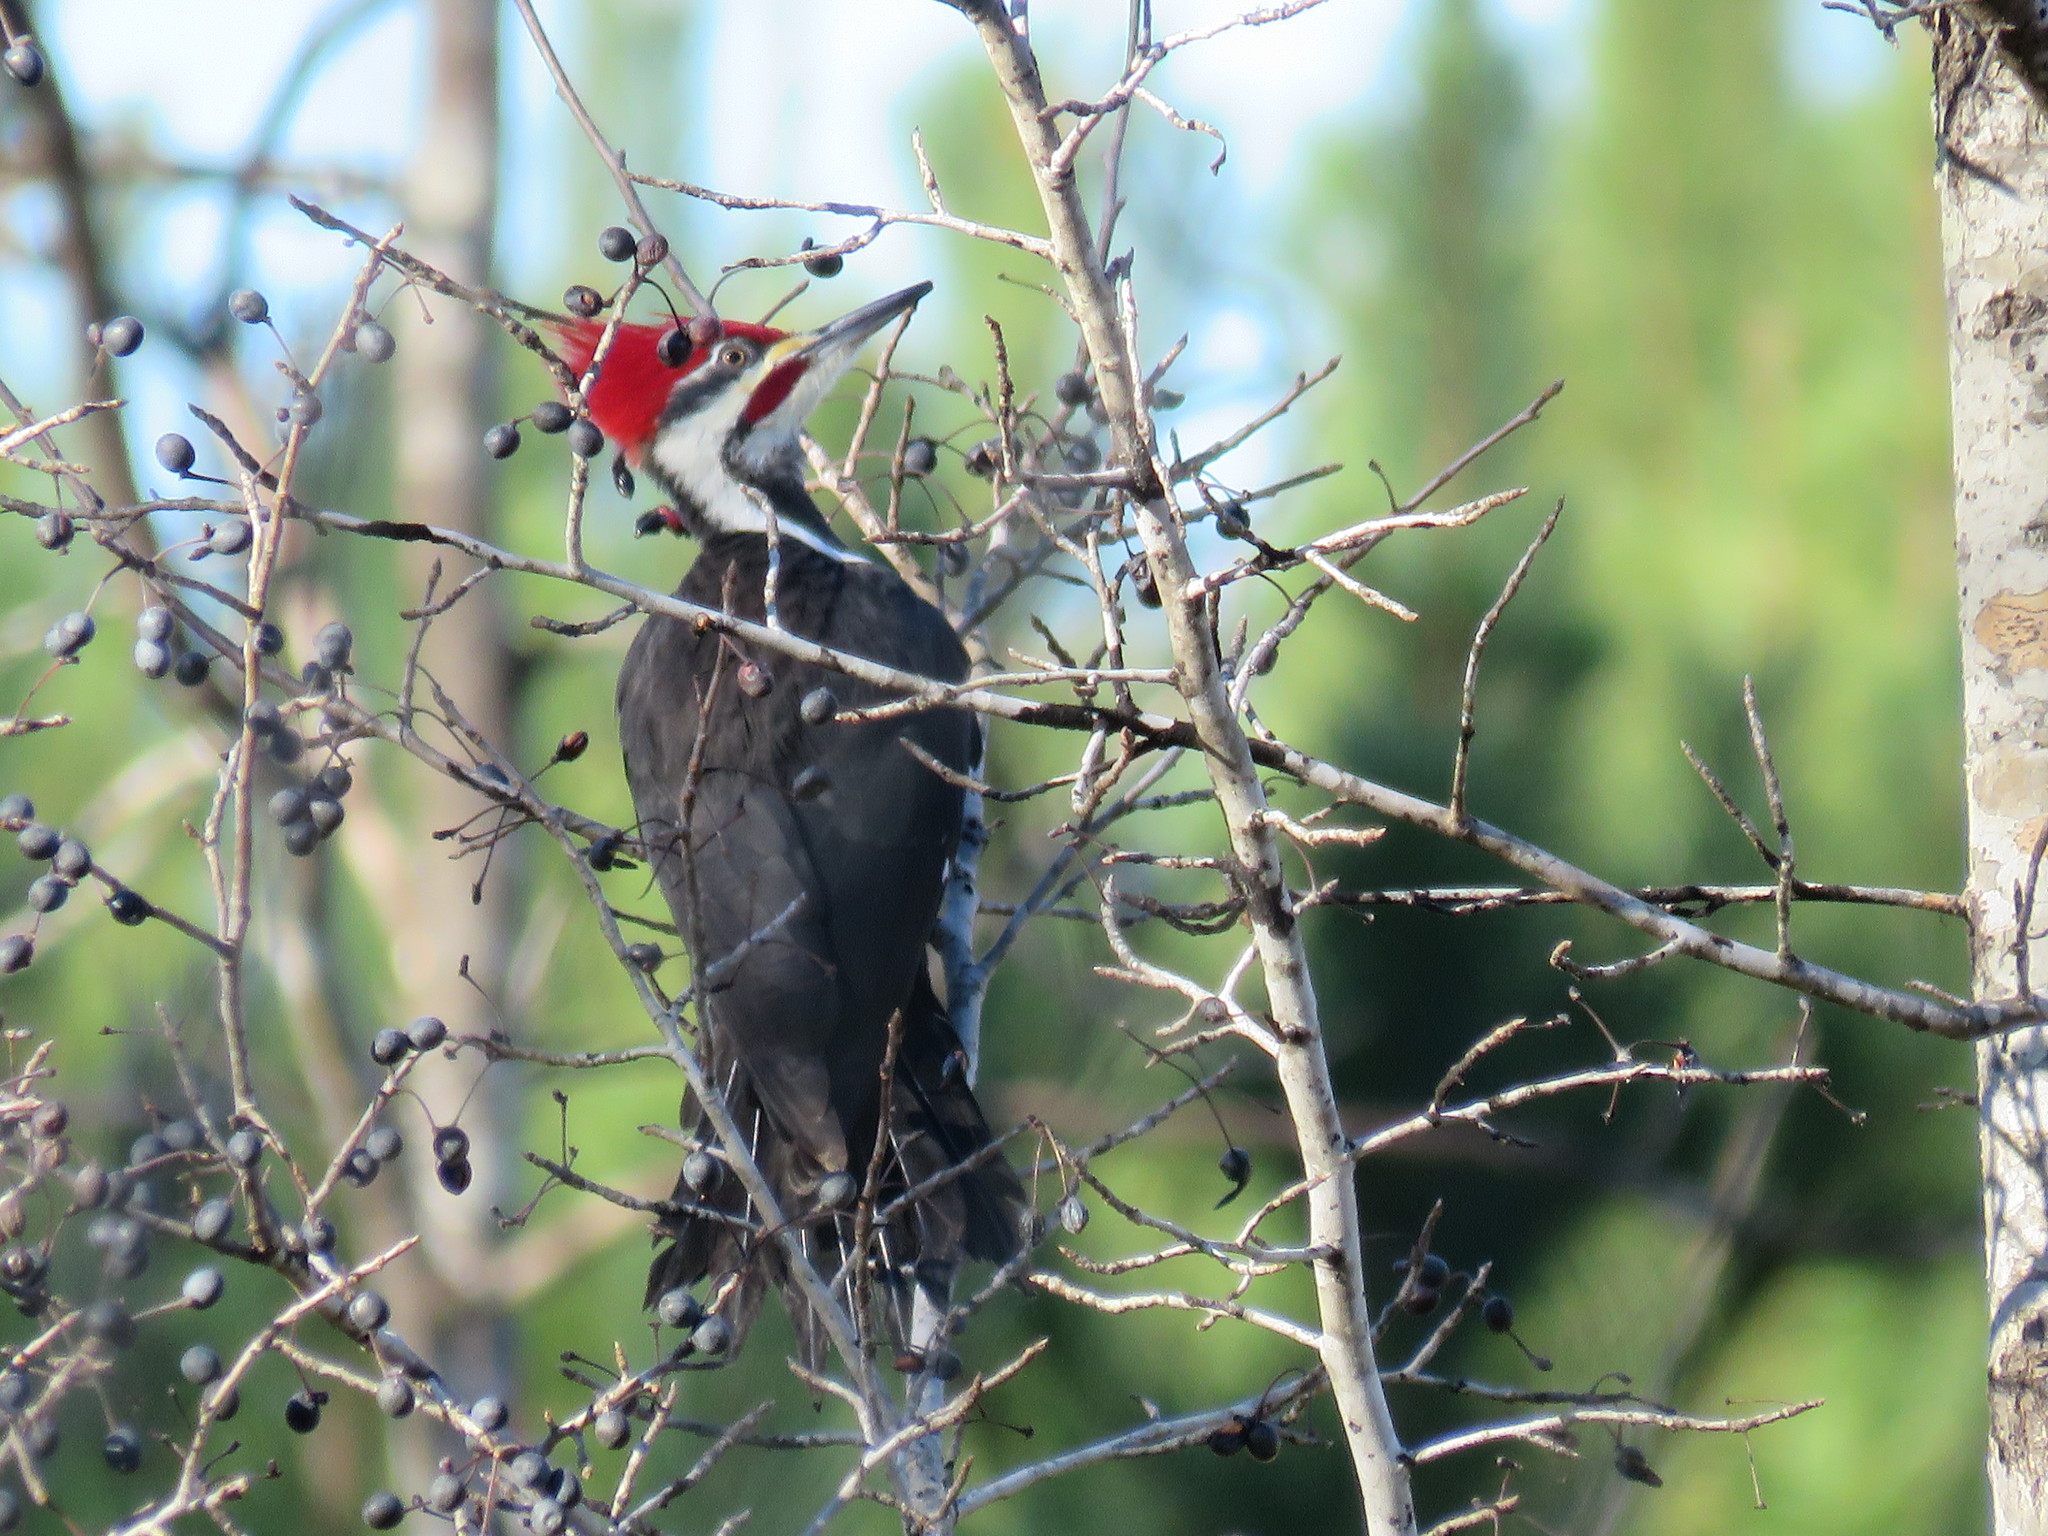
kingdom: Animalia
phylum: Chordata
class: Aves
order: Piciformes
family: Picidae
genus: Dryocopus
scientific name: Dryocopus pileatus
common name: Pileated woodpecker
